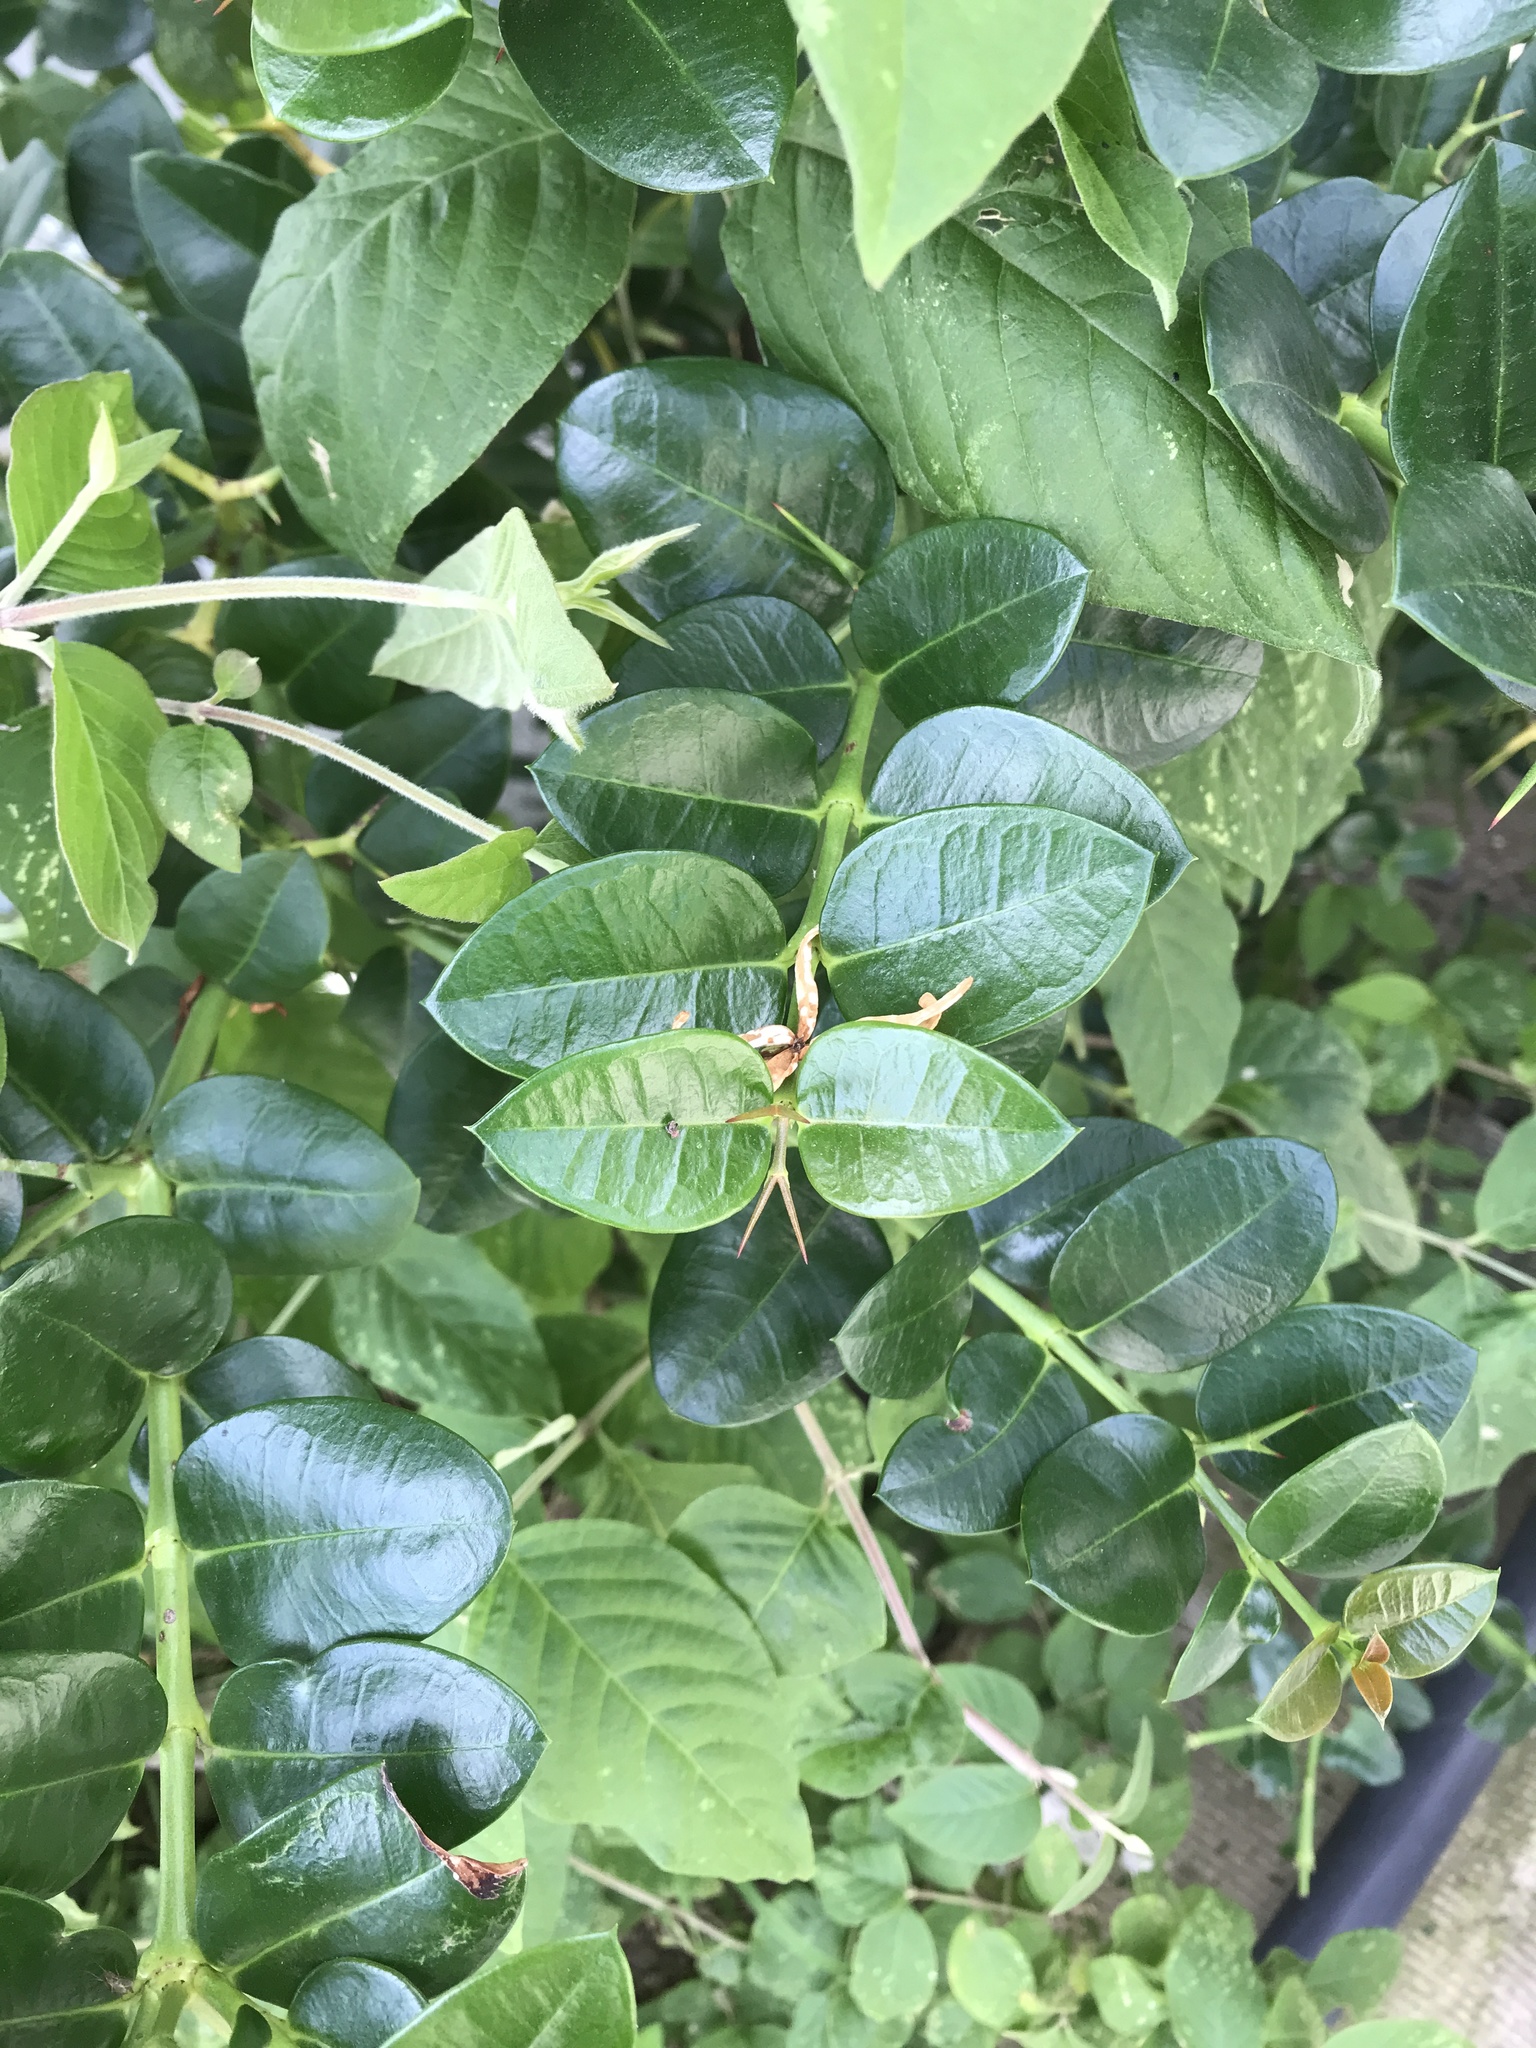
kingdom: Plantae
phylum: Tracheophyta
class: Magnoliopsida
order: Gentianales
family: Apocynaceae
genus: Carissa
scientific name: Carissa macrocarpa
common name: Natal plum
